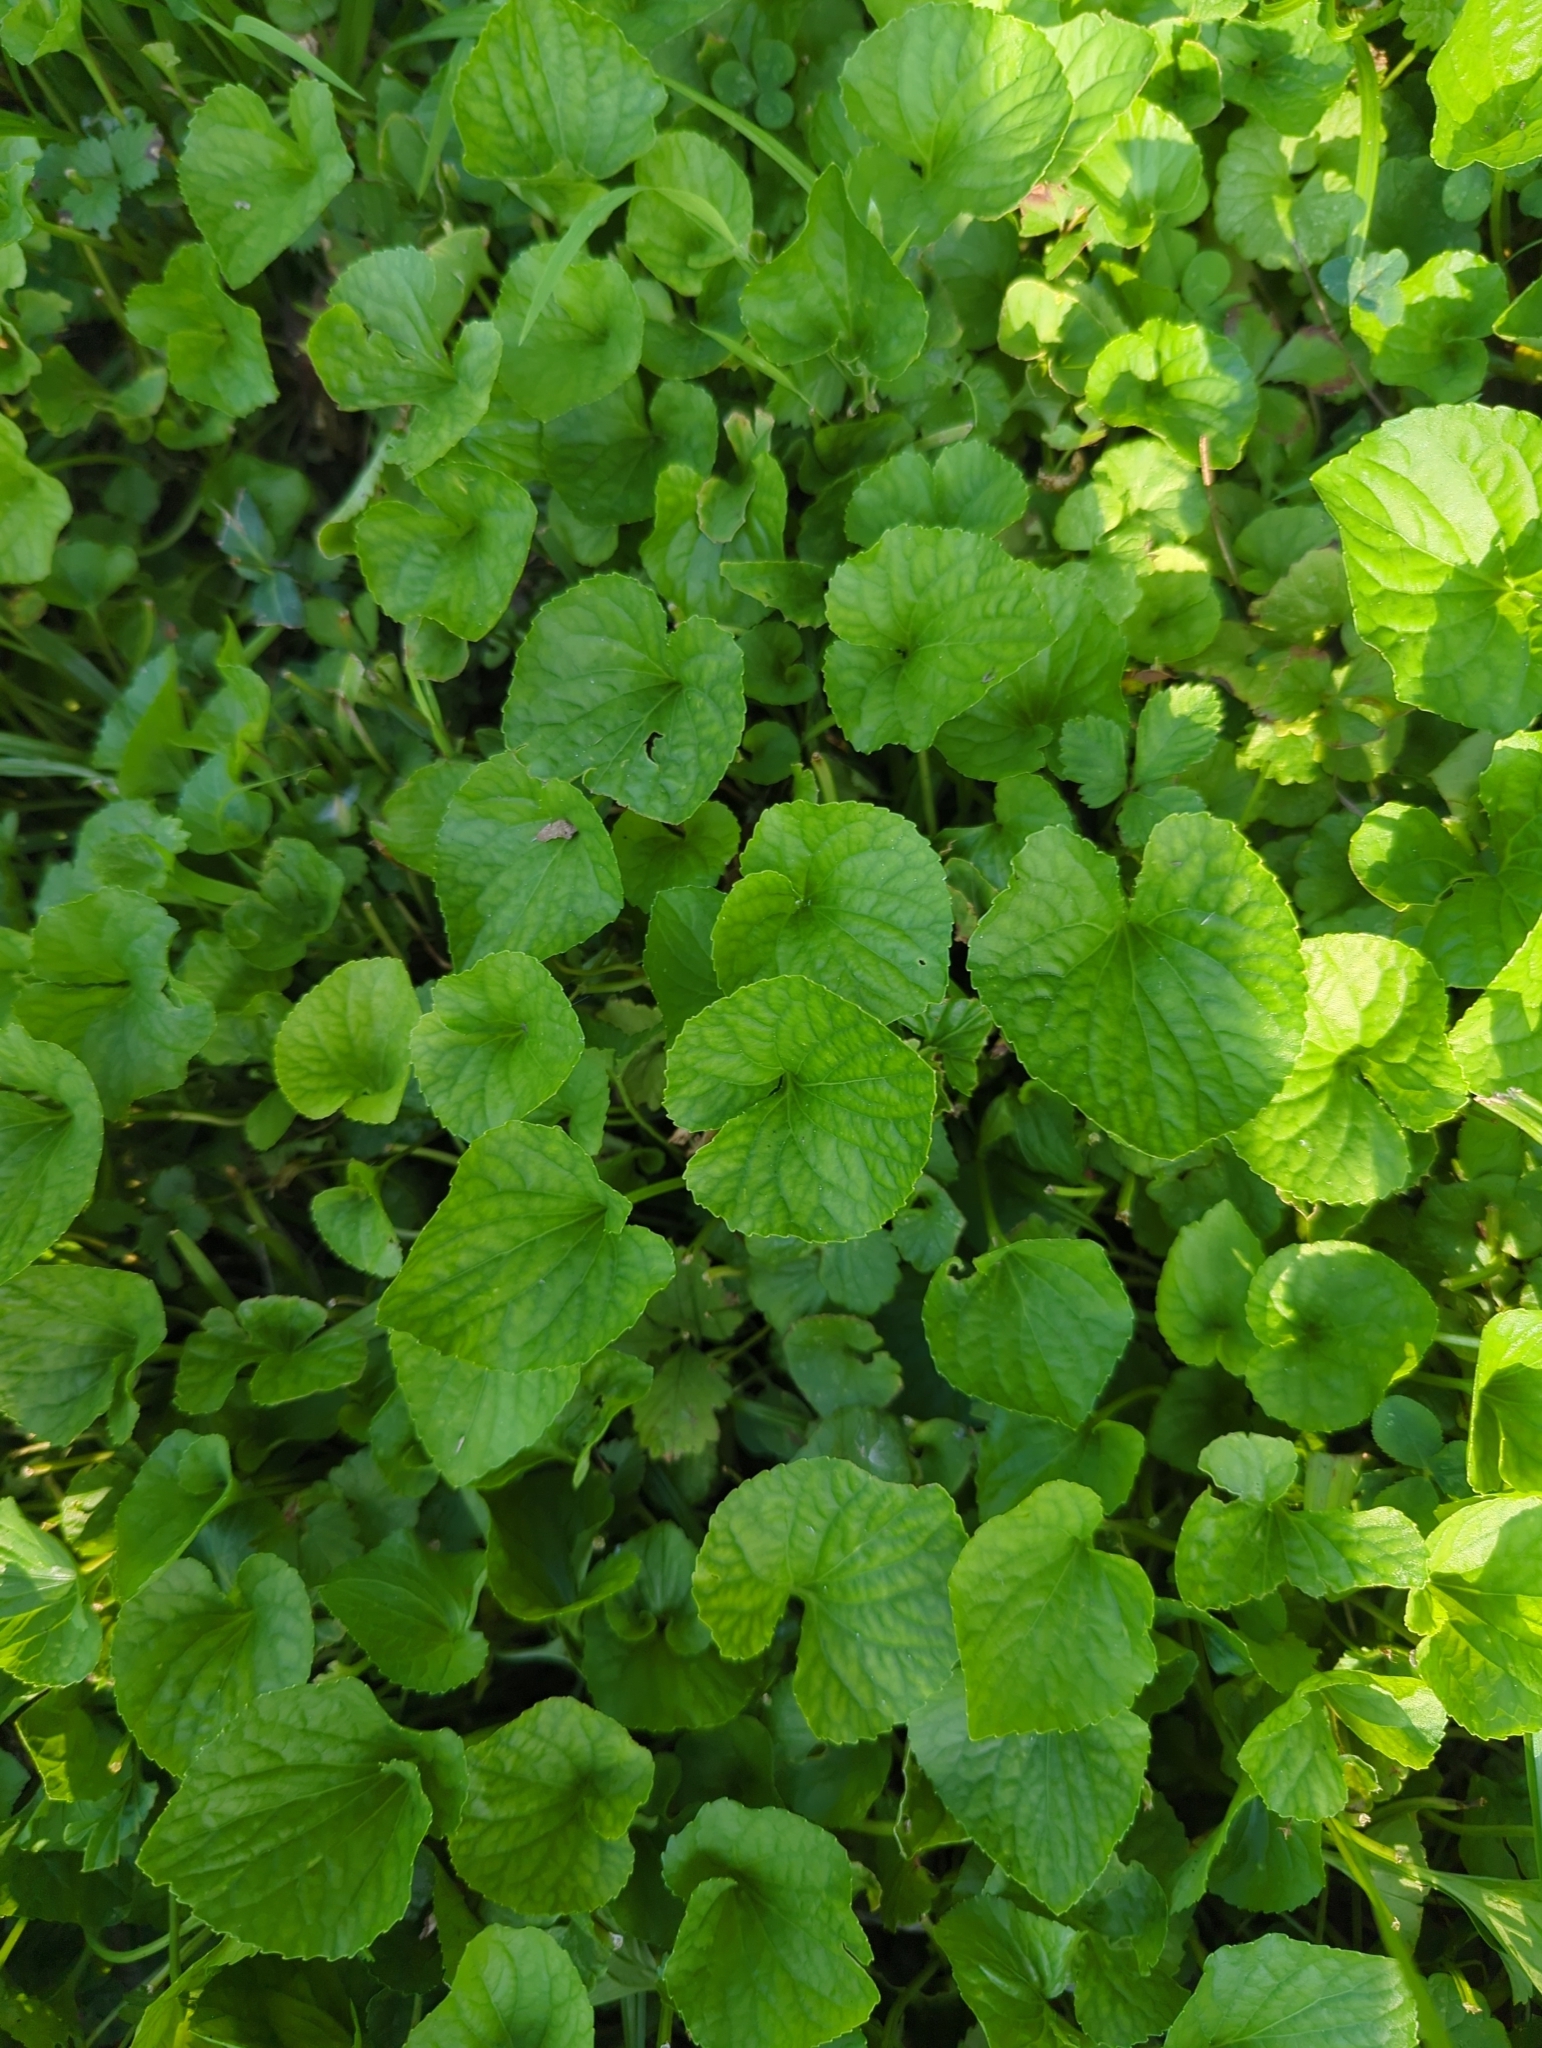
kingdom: Plantae
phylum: Tracheophyta
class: Magnoliopsida
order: Malpighiales
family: Violaceae
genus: Viola
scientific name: Viola sororia
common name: Dooryard violet
